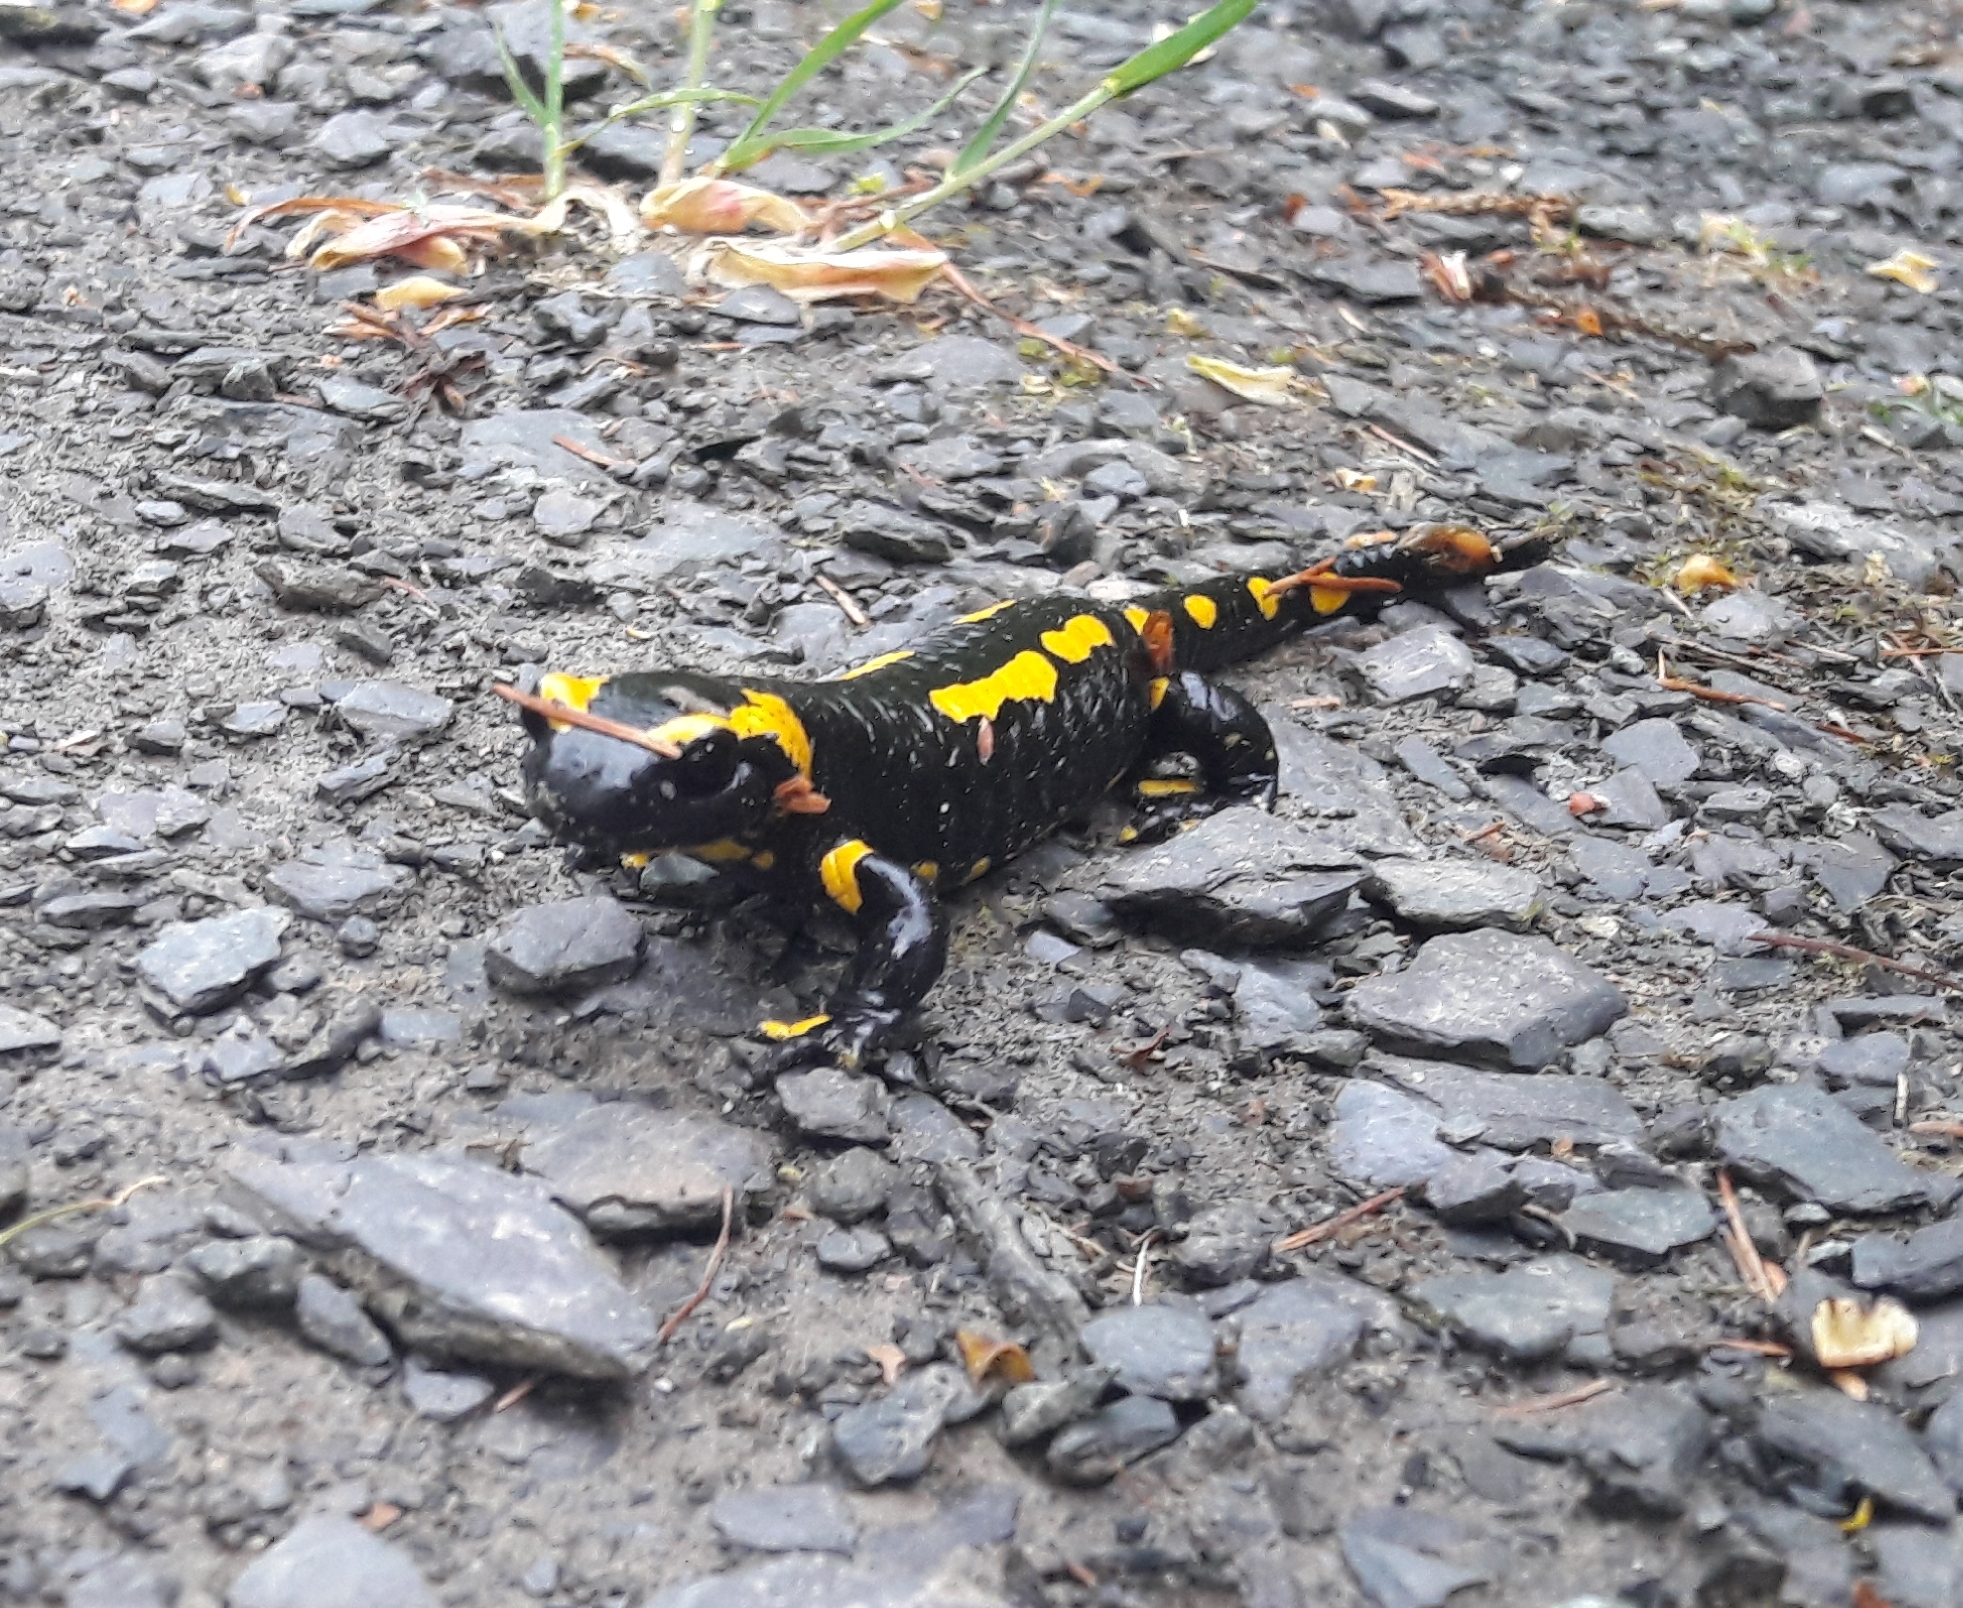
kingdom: Animalia
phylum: Chordata
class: Amphibia
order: Caudata
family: Salamandridae
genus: Salamandra
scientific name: Salamandra salamandra
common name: Fire salamander
